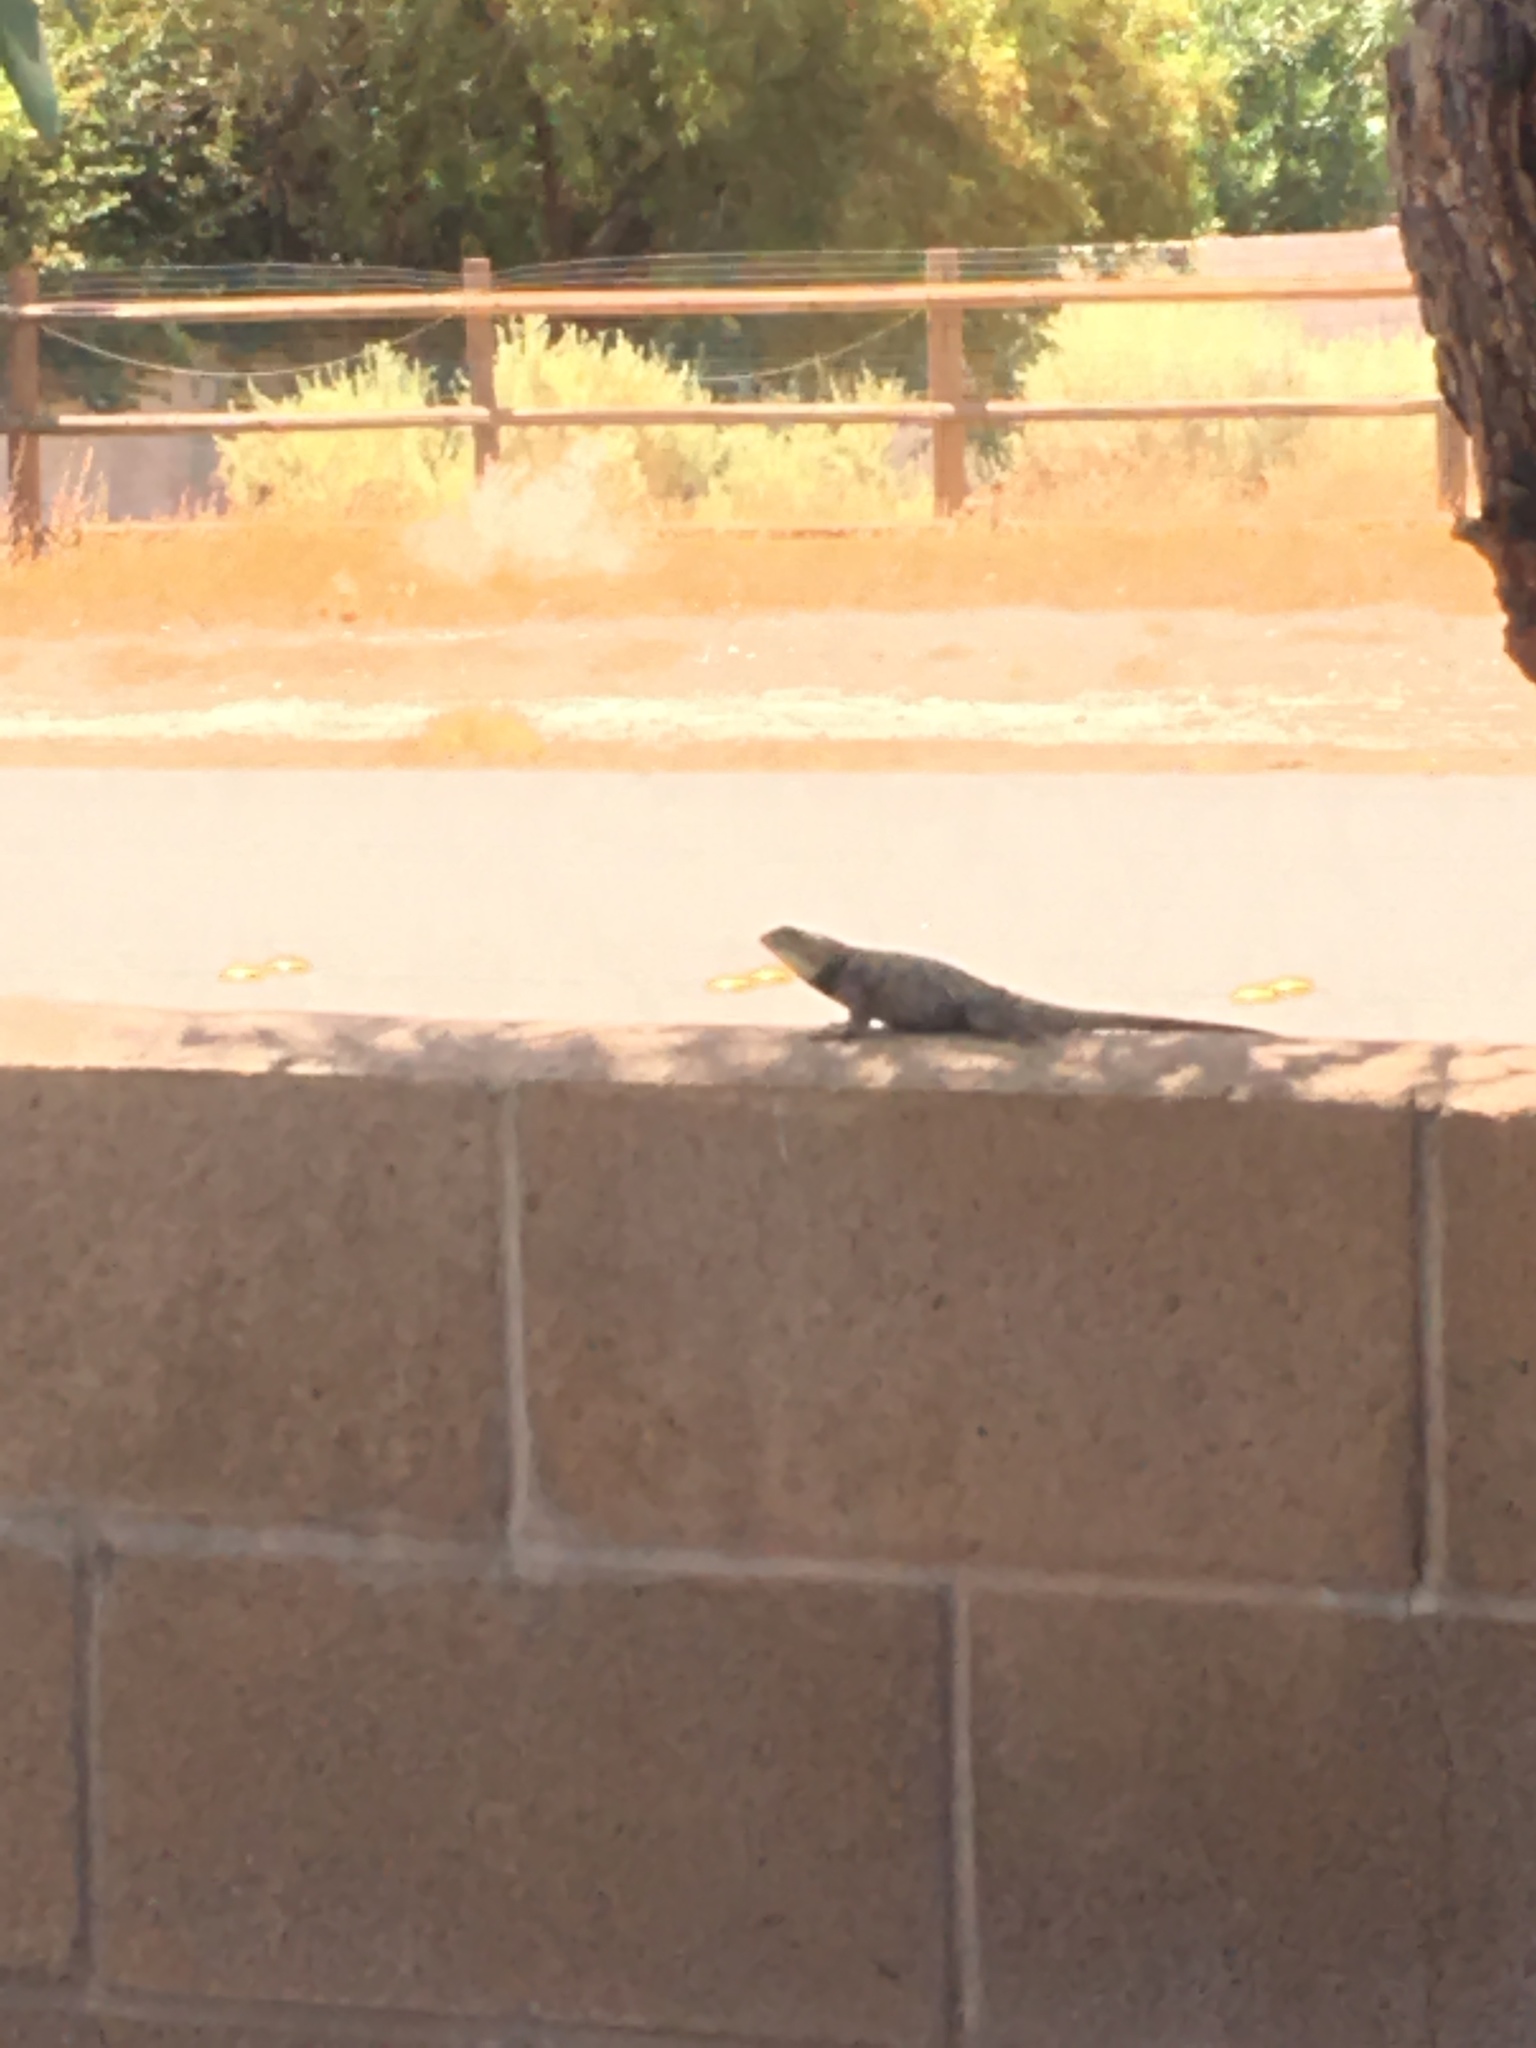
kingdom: Animalia
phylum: Chordata
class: Squamata
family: Phrynosomatidae
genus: Sceloporus
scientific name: Sceloporus magister
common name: Desert spiny lizard
